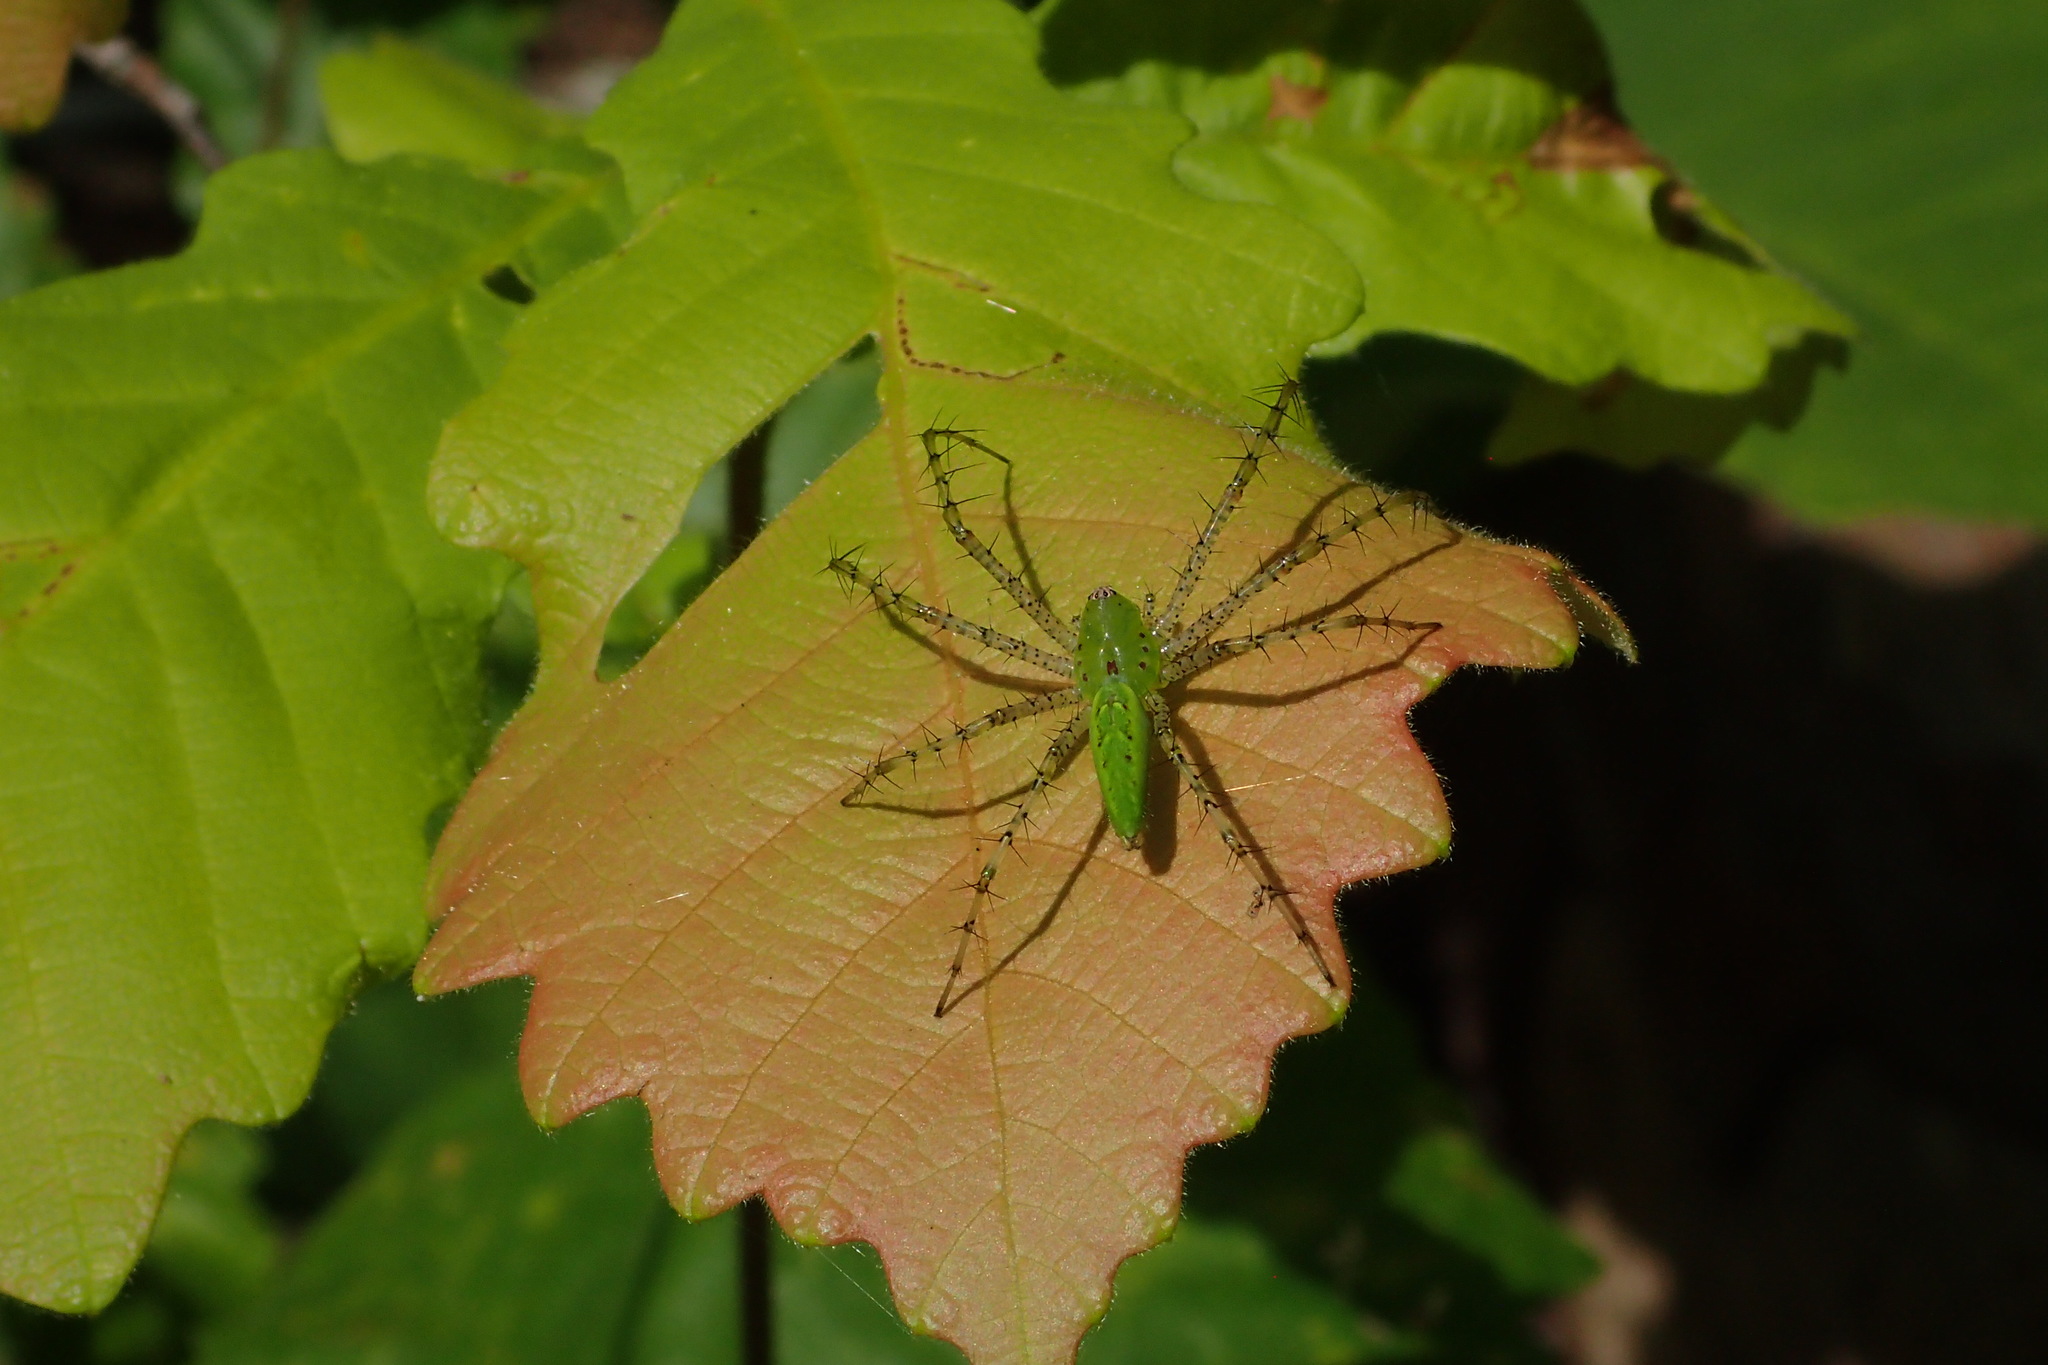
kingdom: Animalia
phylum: Arthropoda
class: Arachnida
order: Araneae
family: Oxyopidae
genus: Peucetia
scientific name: Peucetia viridans
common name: Lynx spiders
